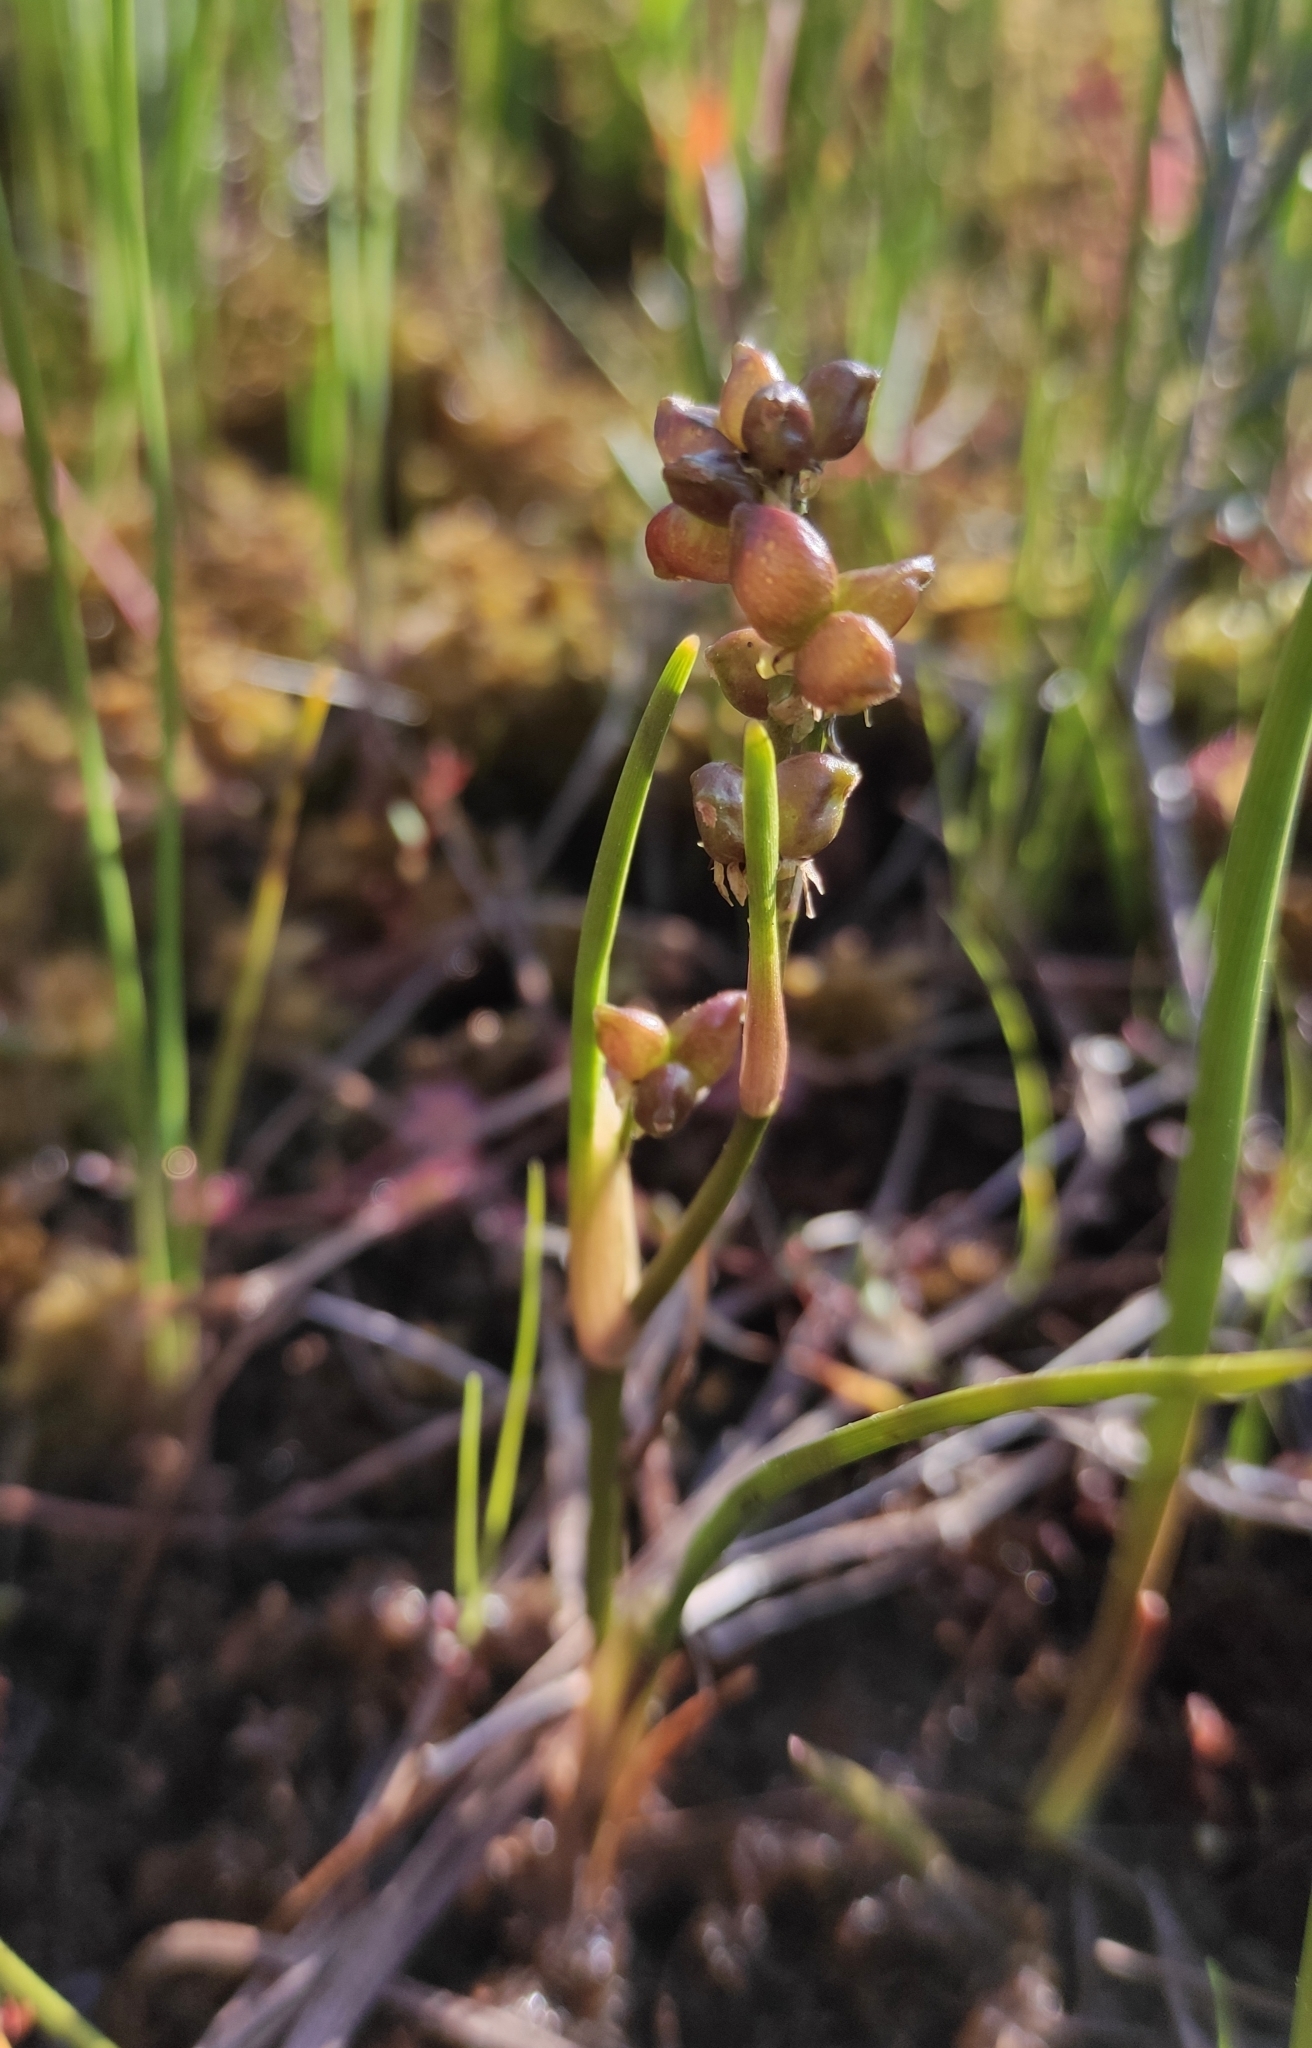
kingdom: Plantae
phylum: Tracheophyta
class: Liliopsida
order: Alismatales
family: Scheuchzeriaceae
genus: Scheuchzeria
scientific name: Scheuchzeria palustris
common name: Rannoch-rush
